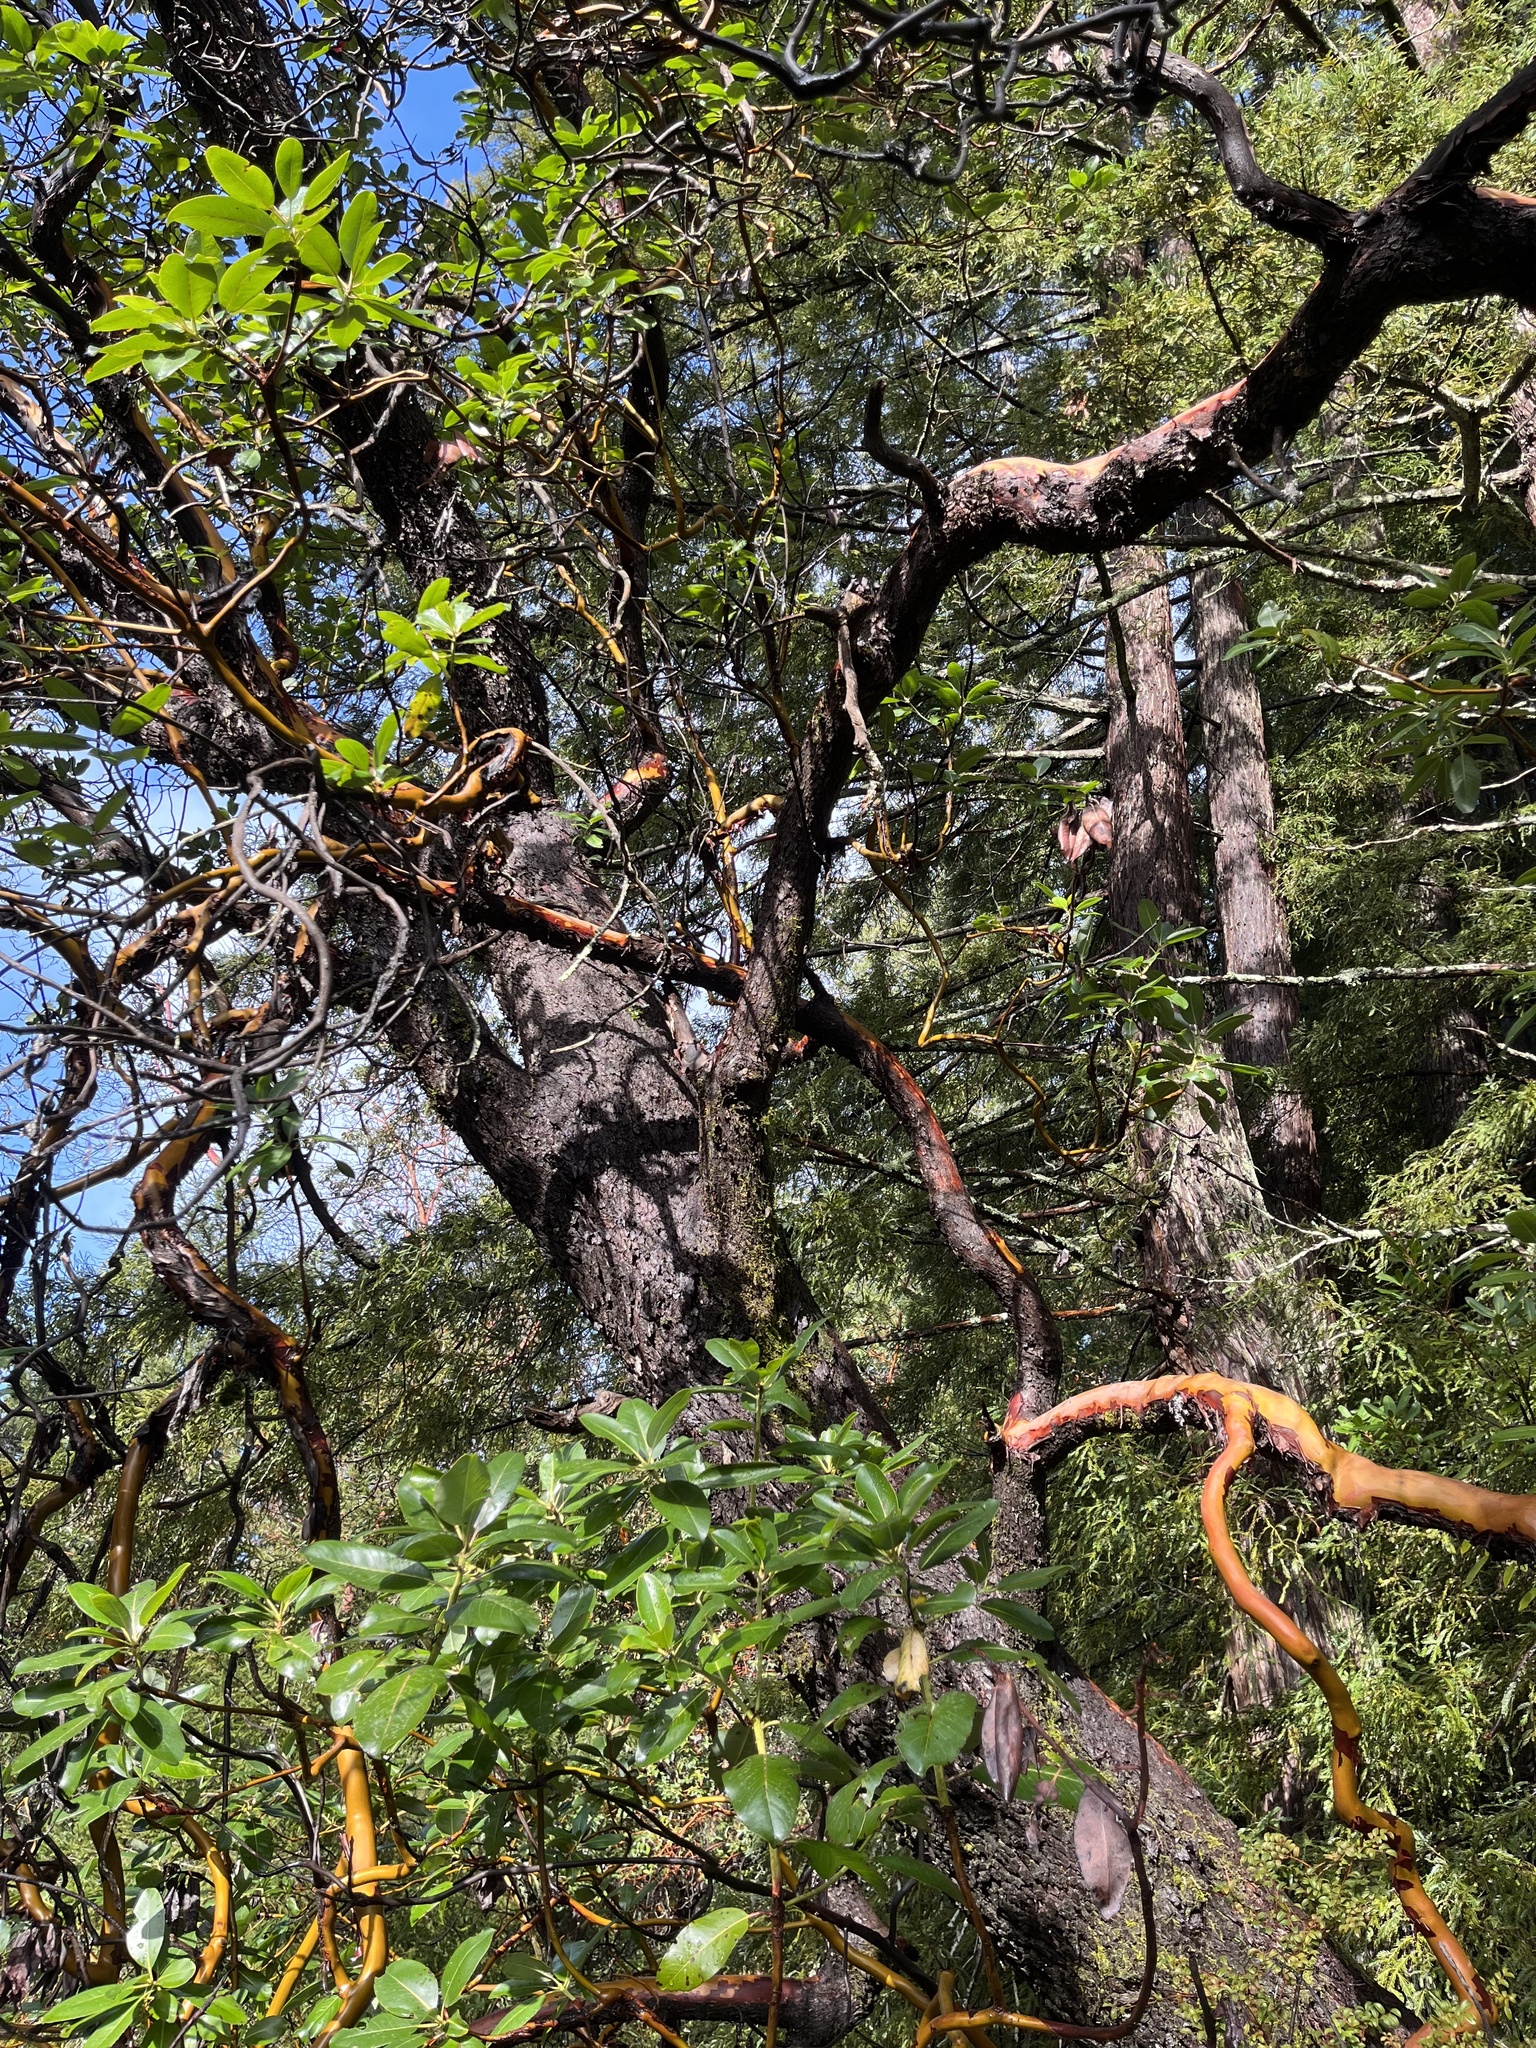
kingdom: Plantae
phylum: Tracheophyta
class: Magnoliopsida
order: Ericales
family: Ericaceae
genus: Arbutus
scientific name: Arbutus menziesii
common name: Pacific madrone
